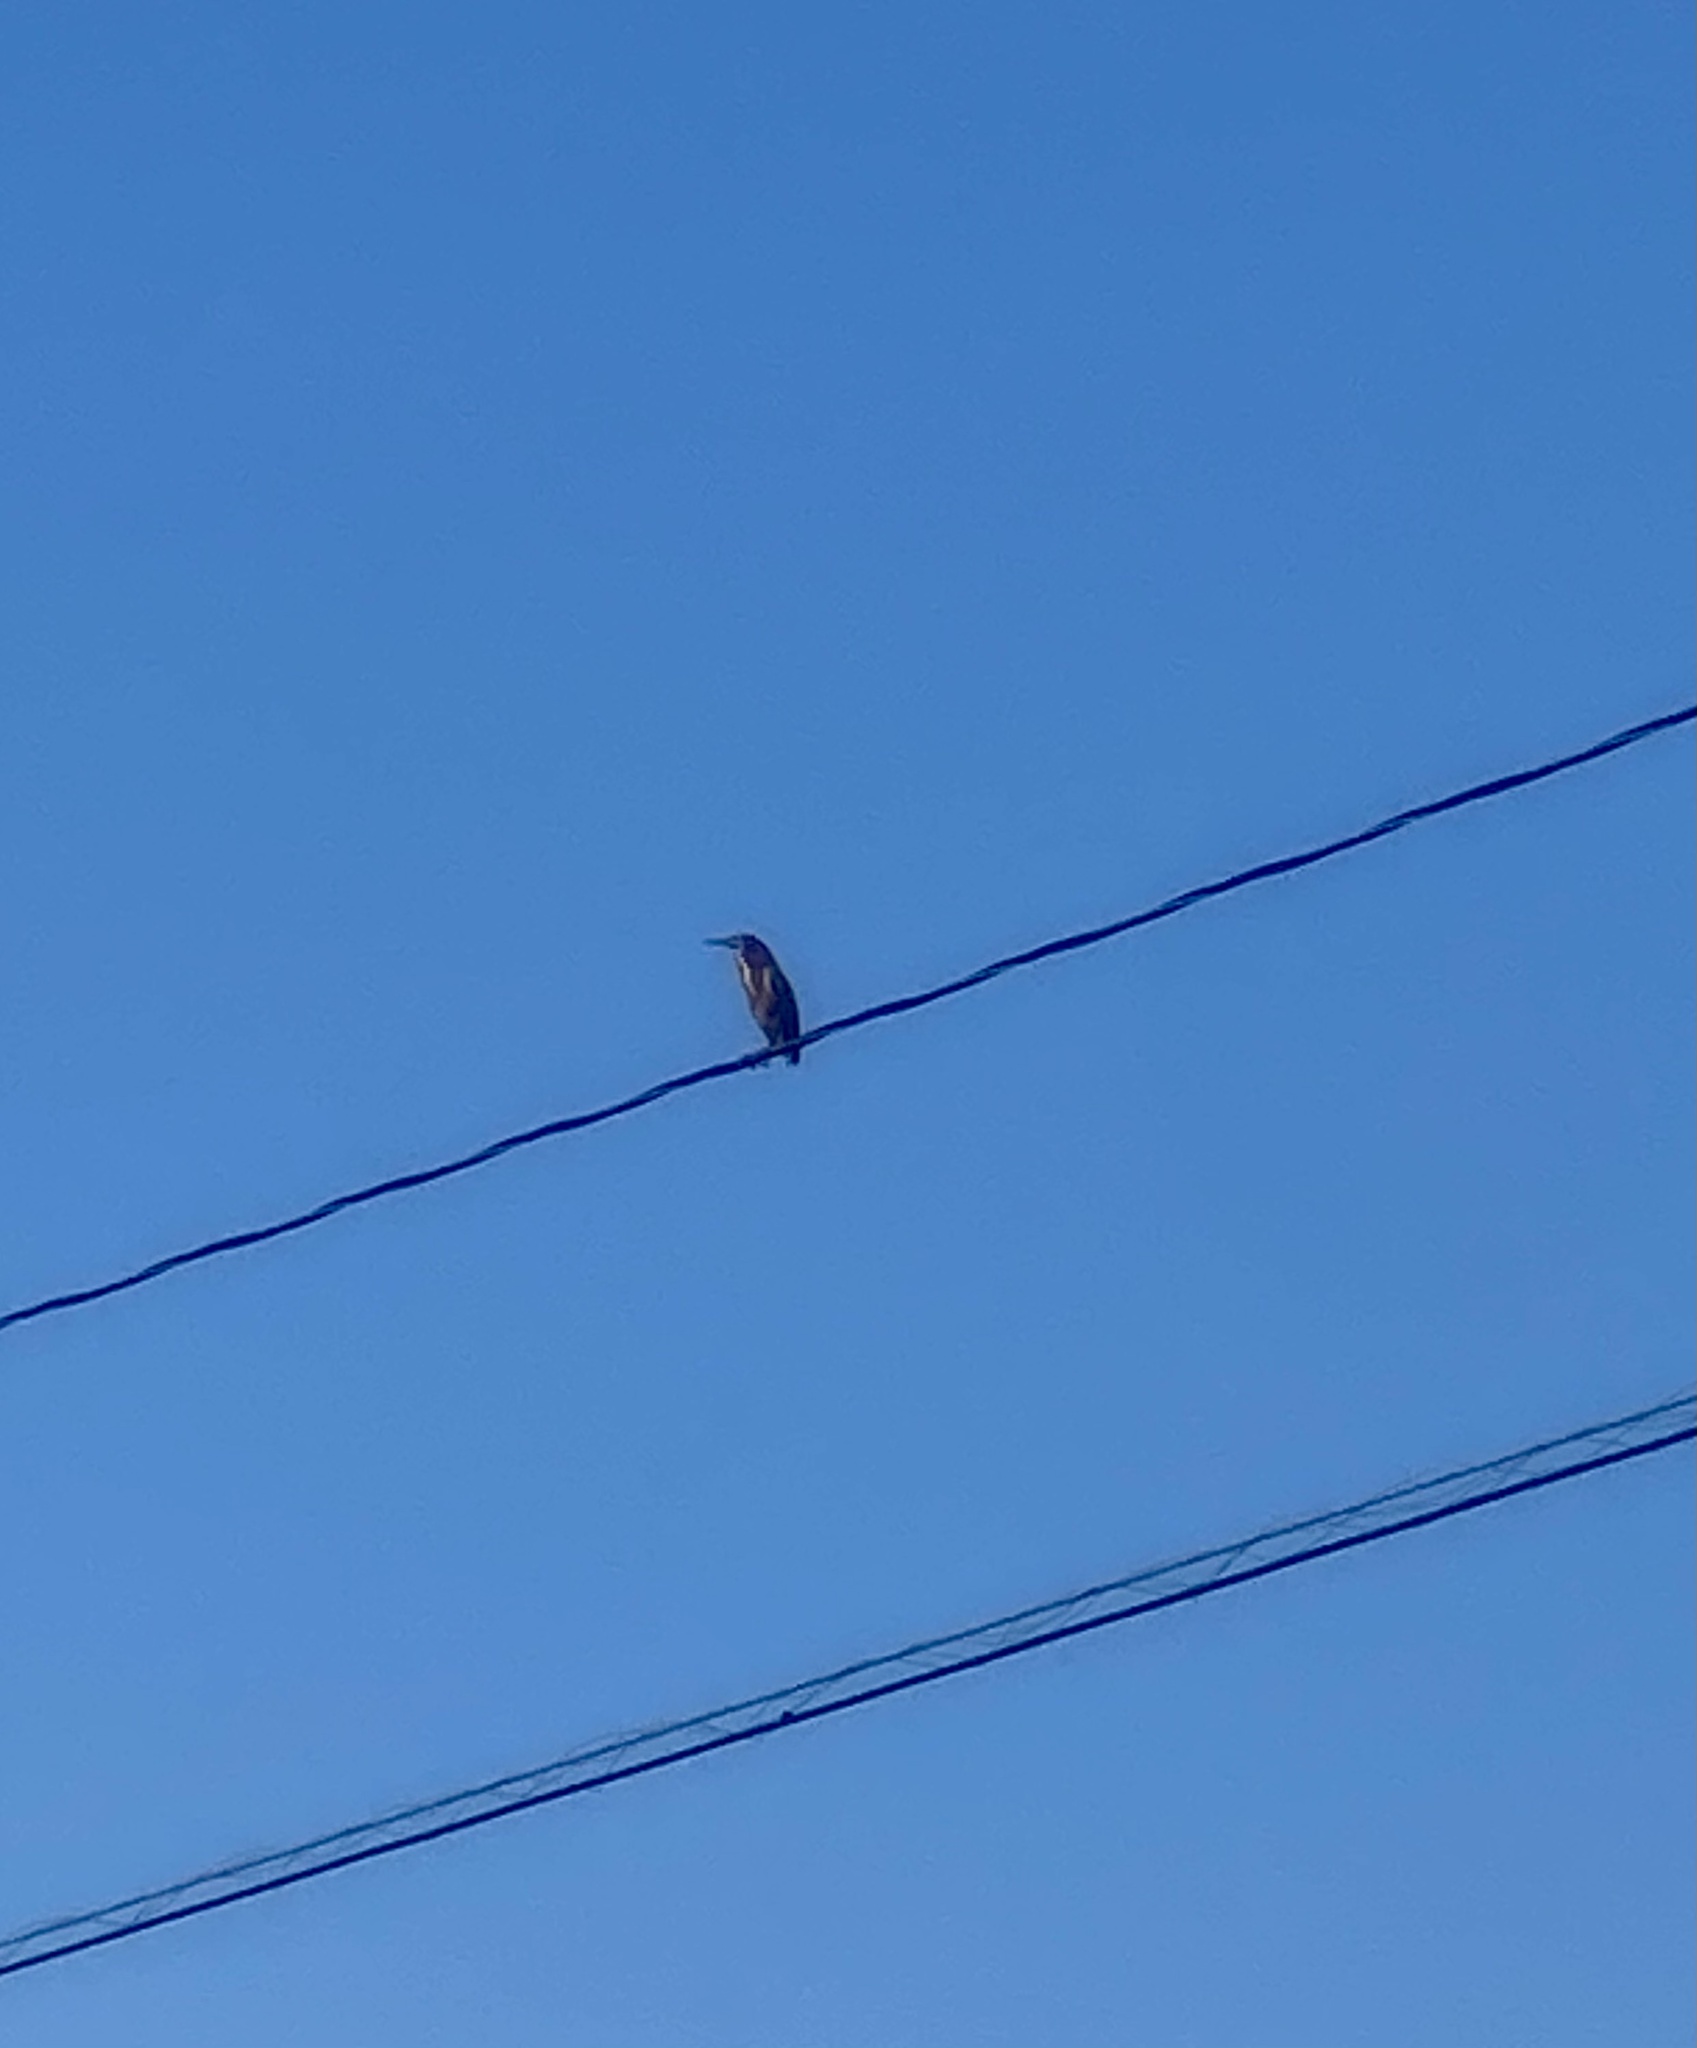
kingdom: Animalia
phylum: Chordata
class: Aves
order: Pelecaniformes
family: Ardeidae
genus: Butorides
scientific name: Butorides virescens
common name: Green heron
